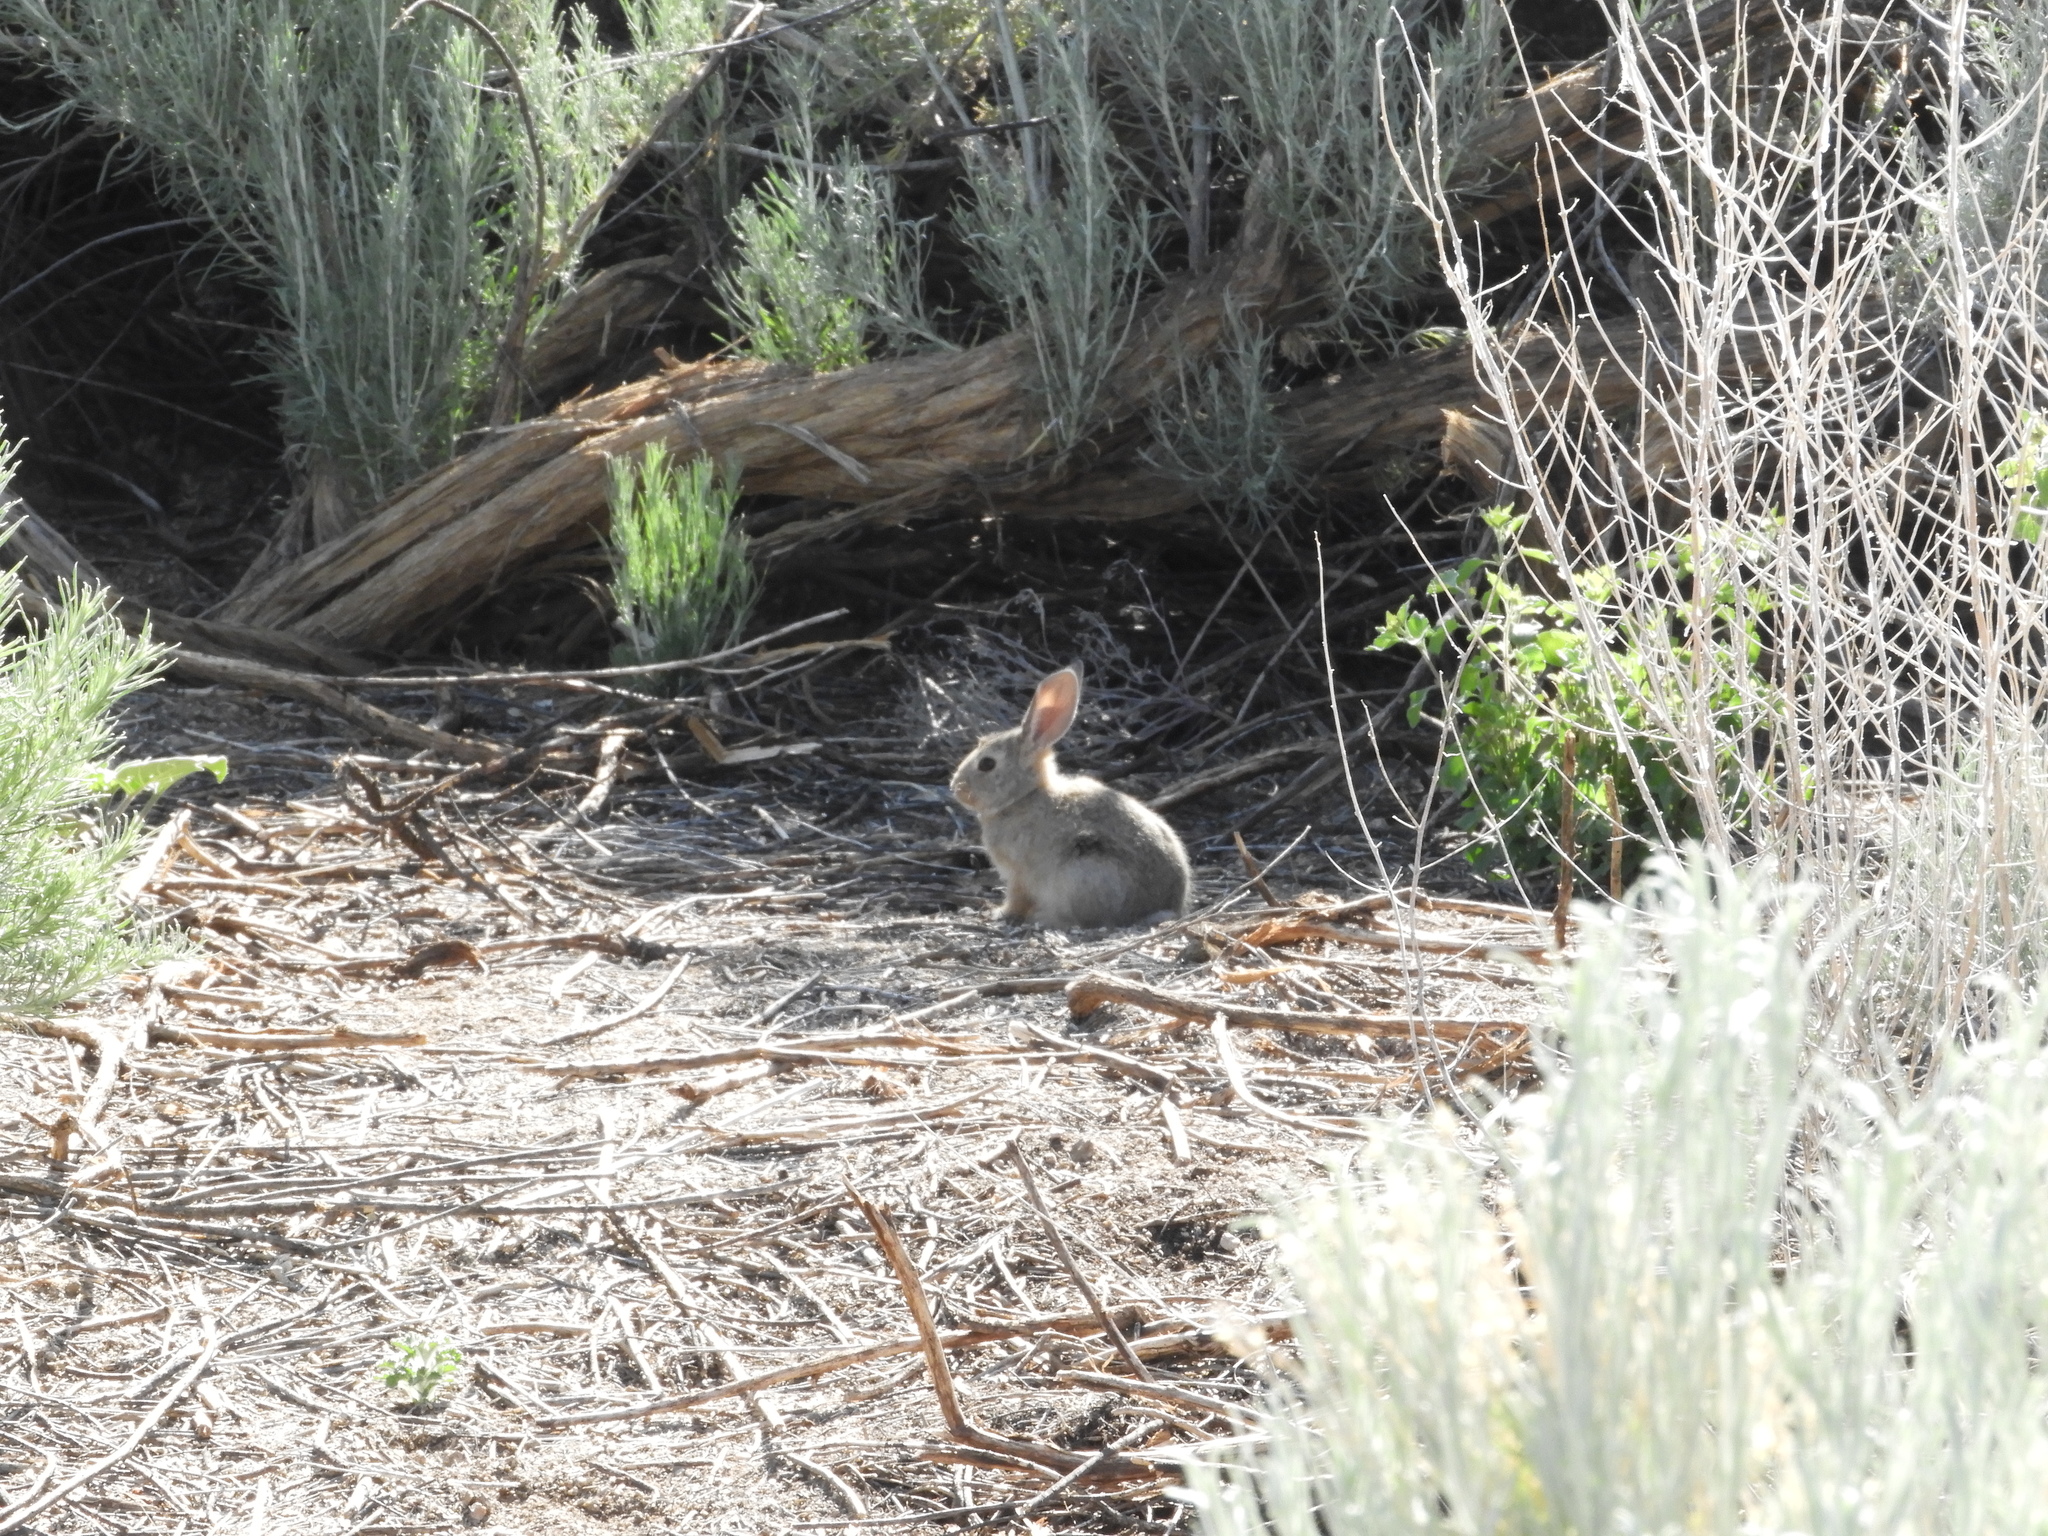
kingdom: Animalia
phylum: Chordata
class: Mammalia
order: Lagomorpha
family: Leporidae
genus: Sylvilagus
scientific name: Sylvilagus audubonii
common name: Desert cottontail
